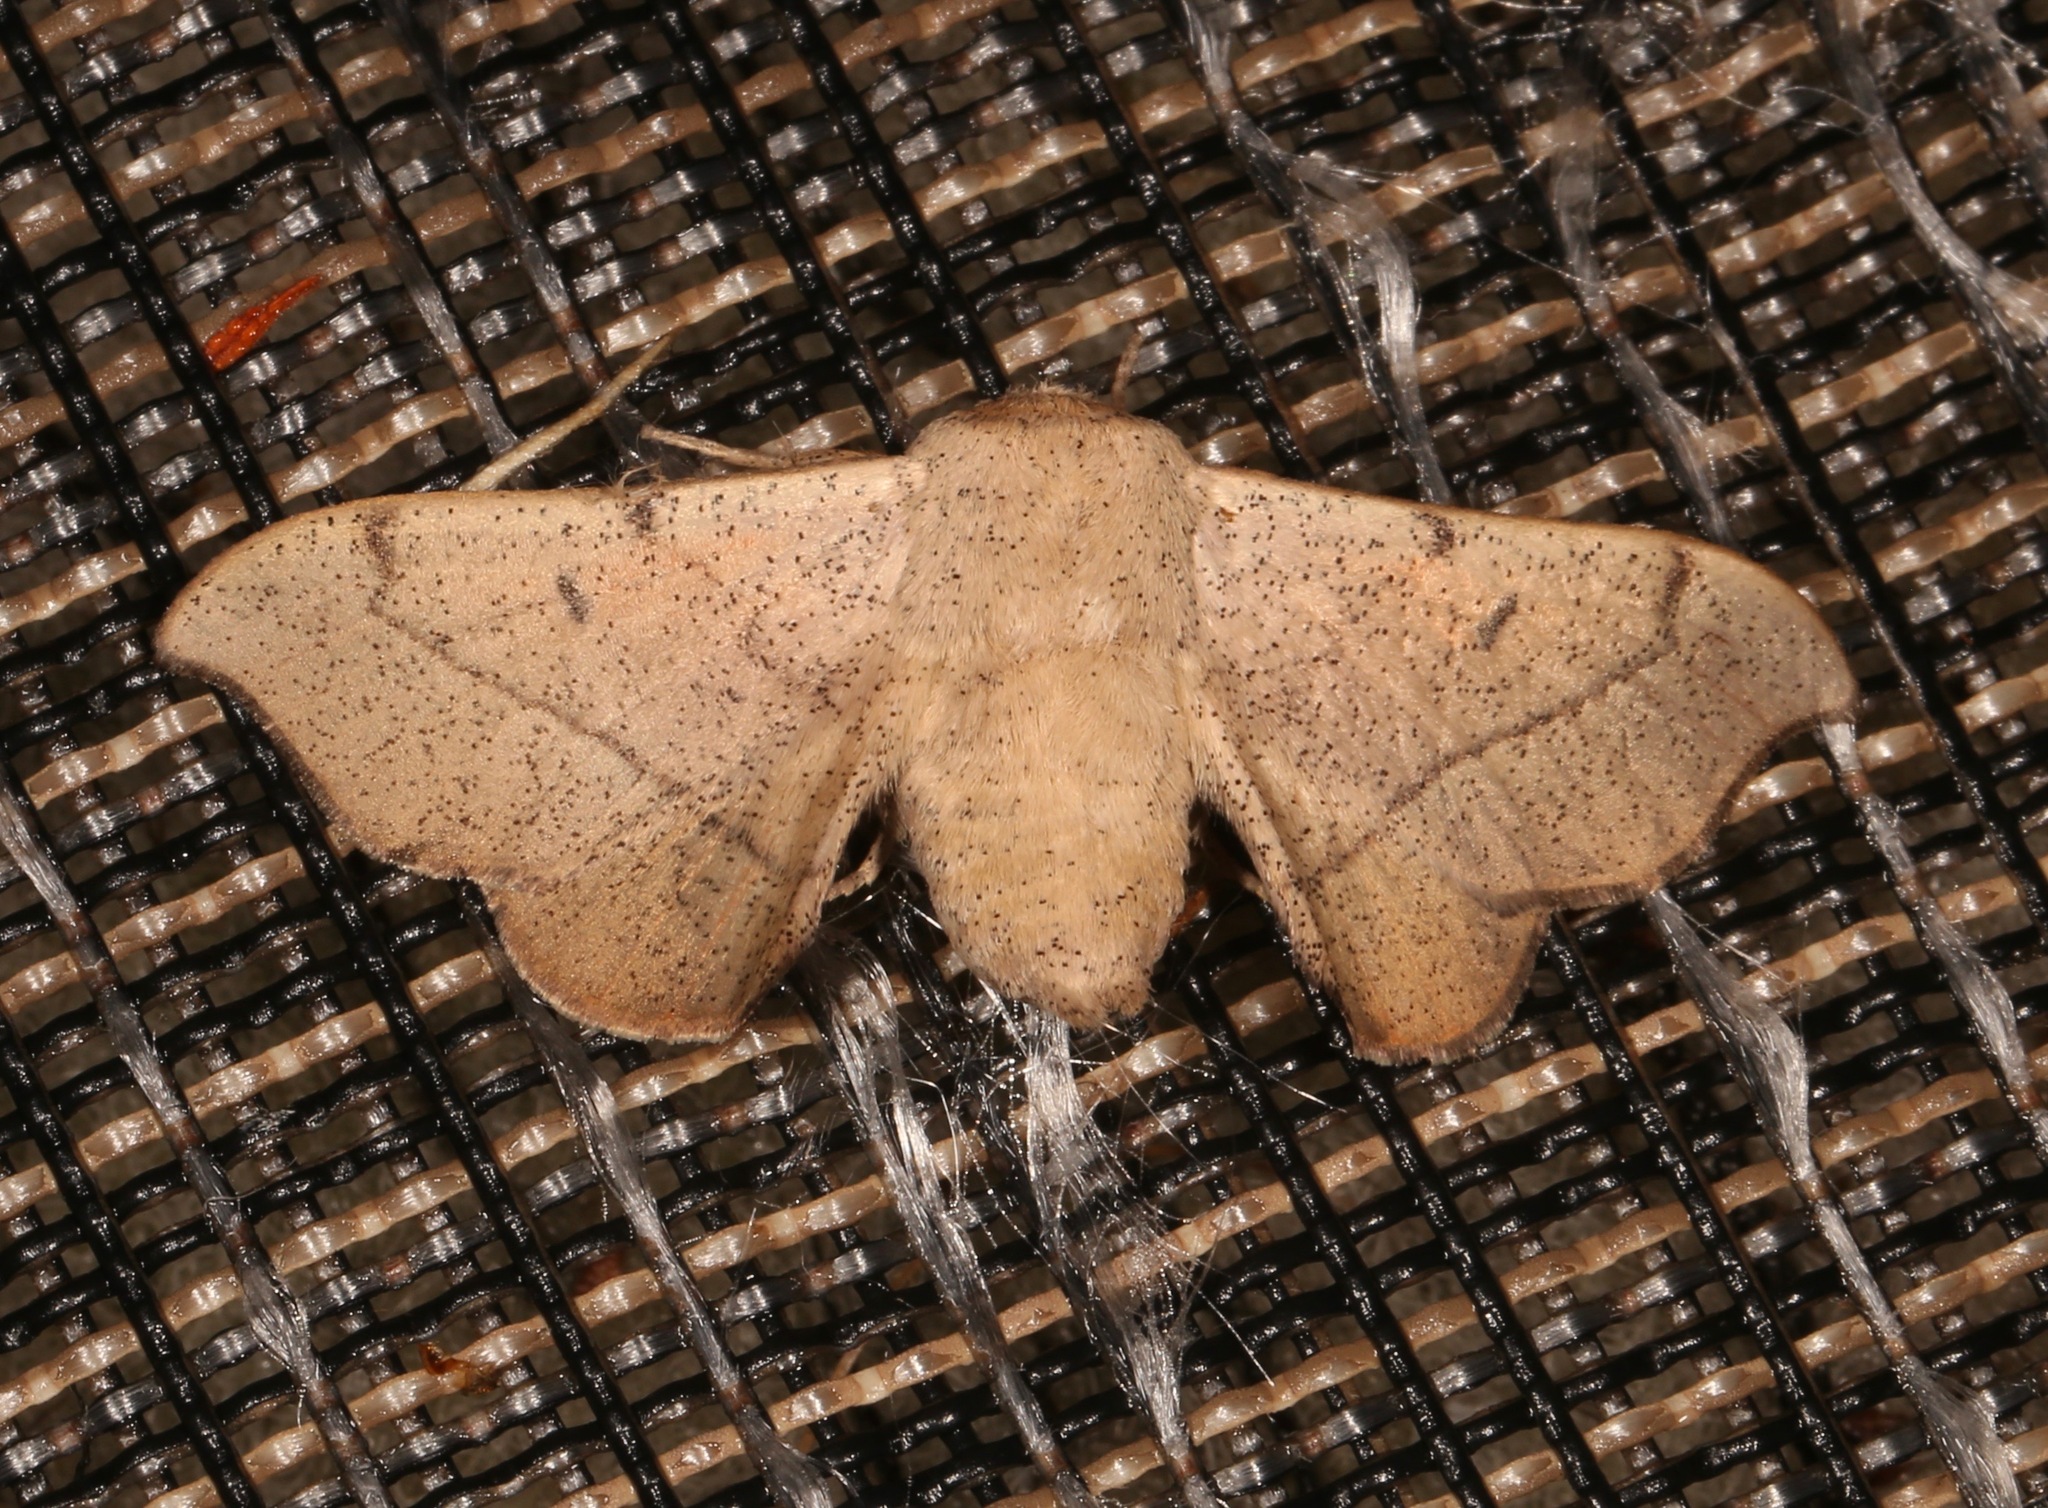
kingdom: Animalia
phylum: Arthropoda
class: Insecta
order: Lepidoptera
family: Mimallonidae
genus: Cicinnus
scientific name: Cicinnus melsheimeri
